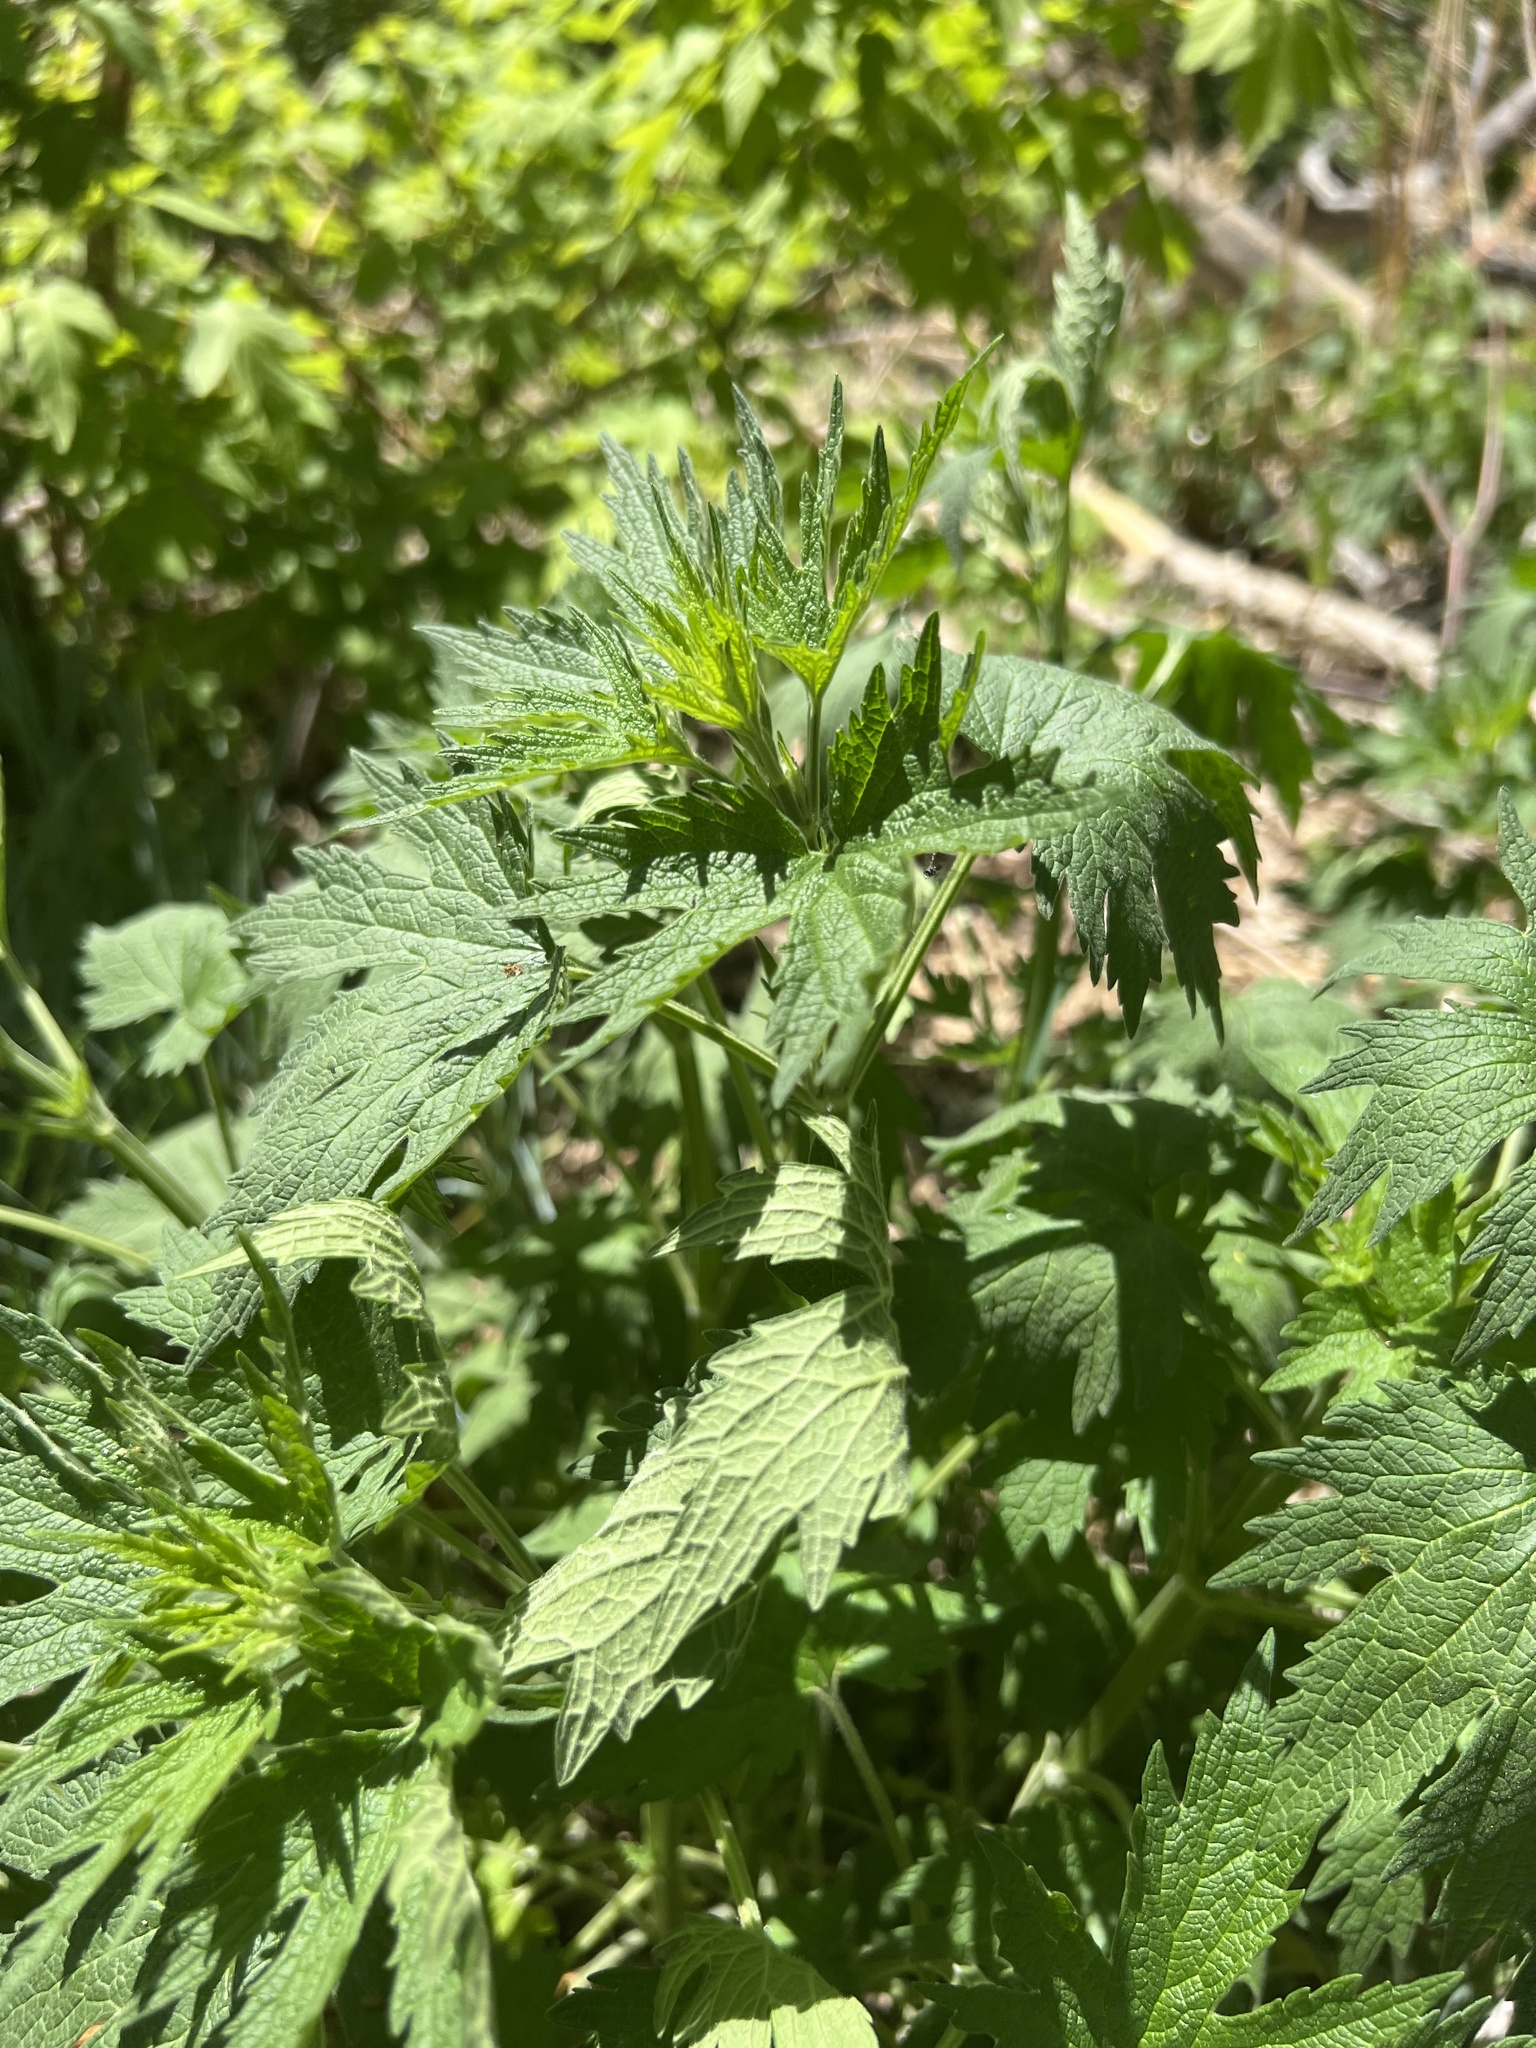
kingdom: Plantae
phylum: Tracheophyta
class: Magnoliopsida
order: Lamiales
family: Lamiaceae
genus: Leonurus
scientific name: Leonurus cardiaca
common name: Motherwort
